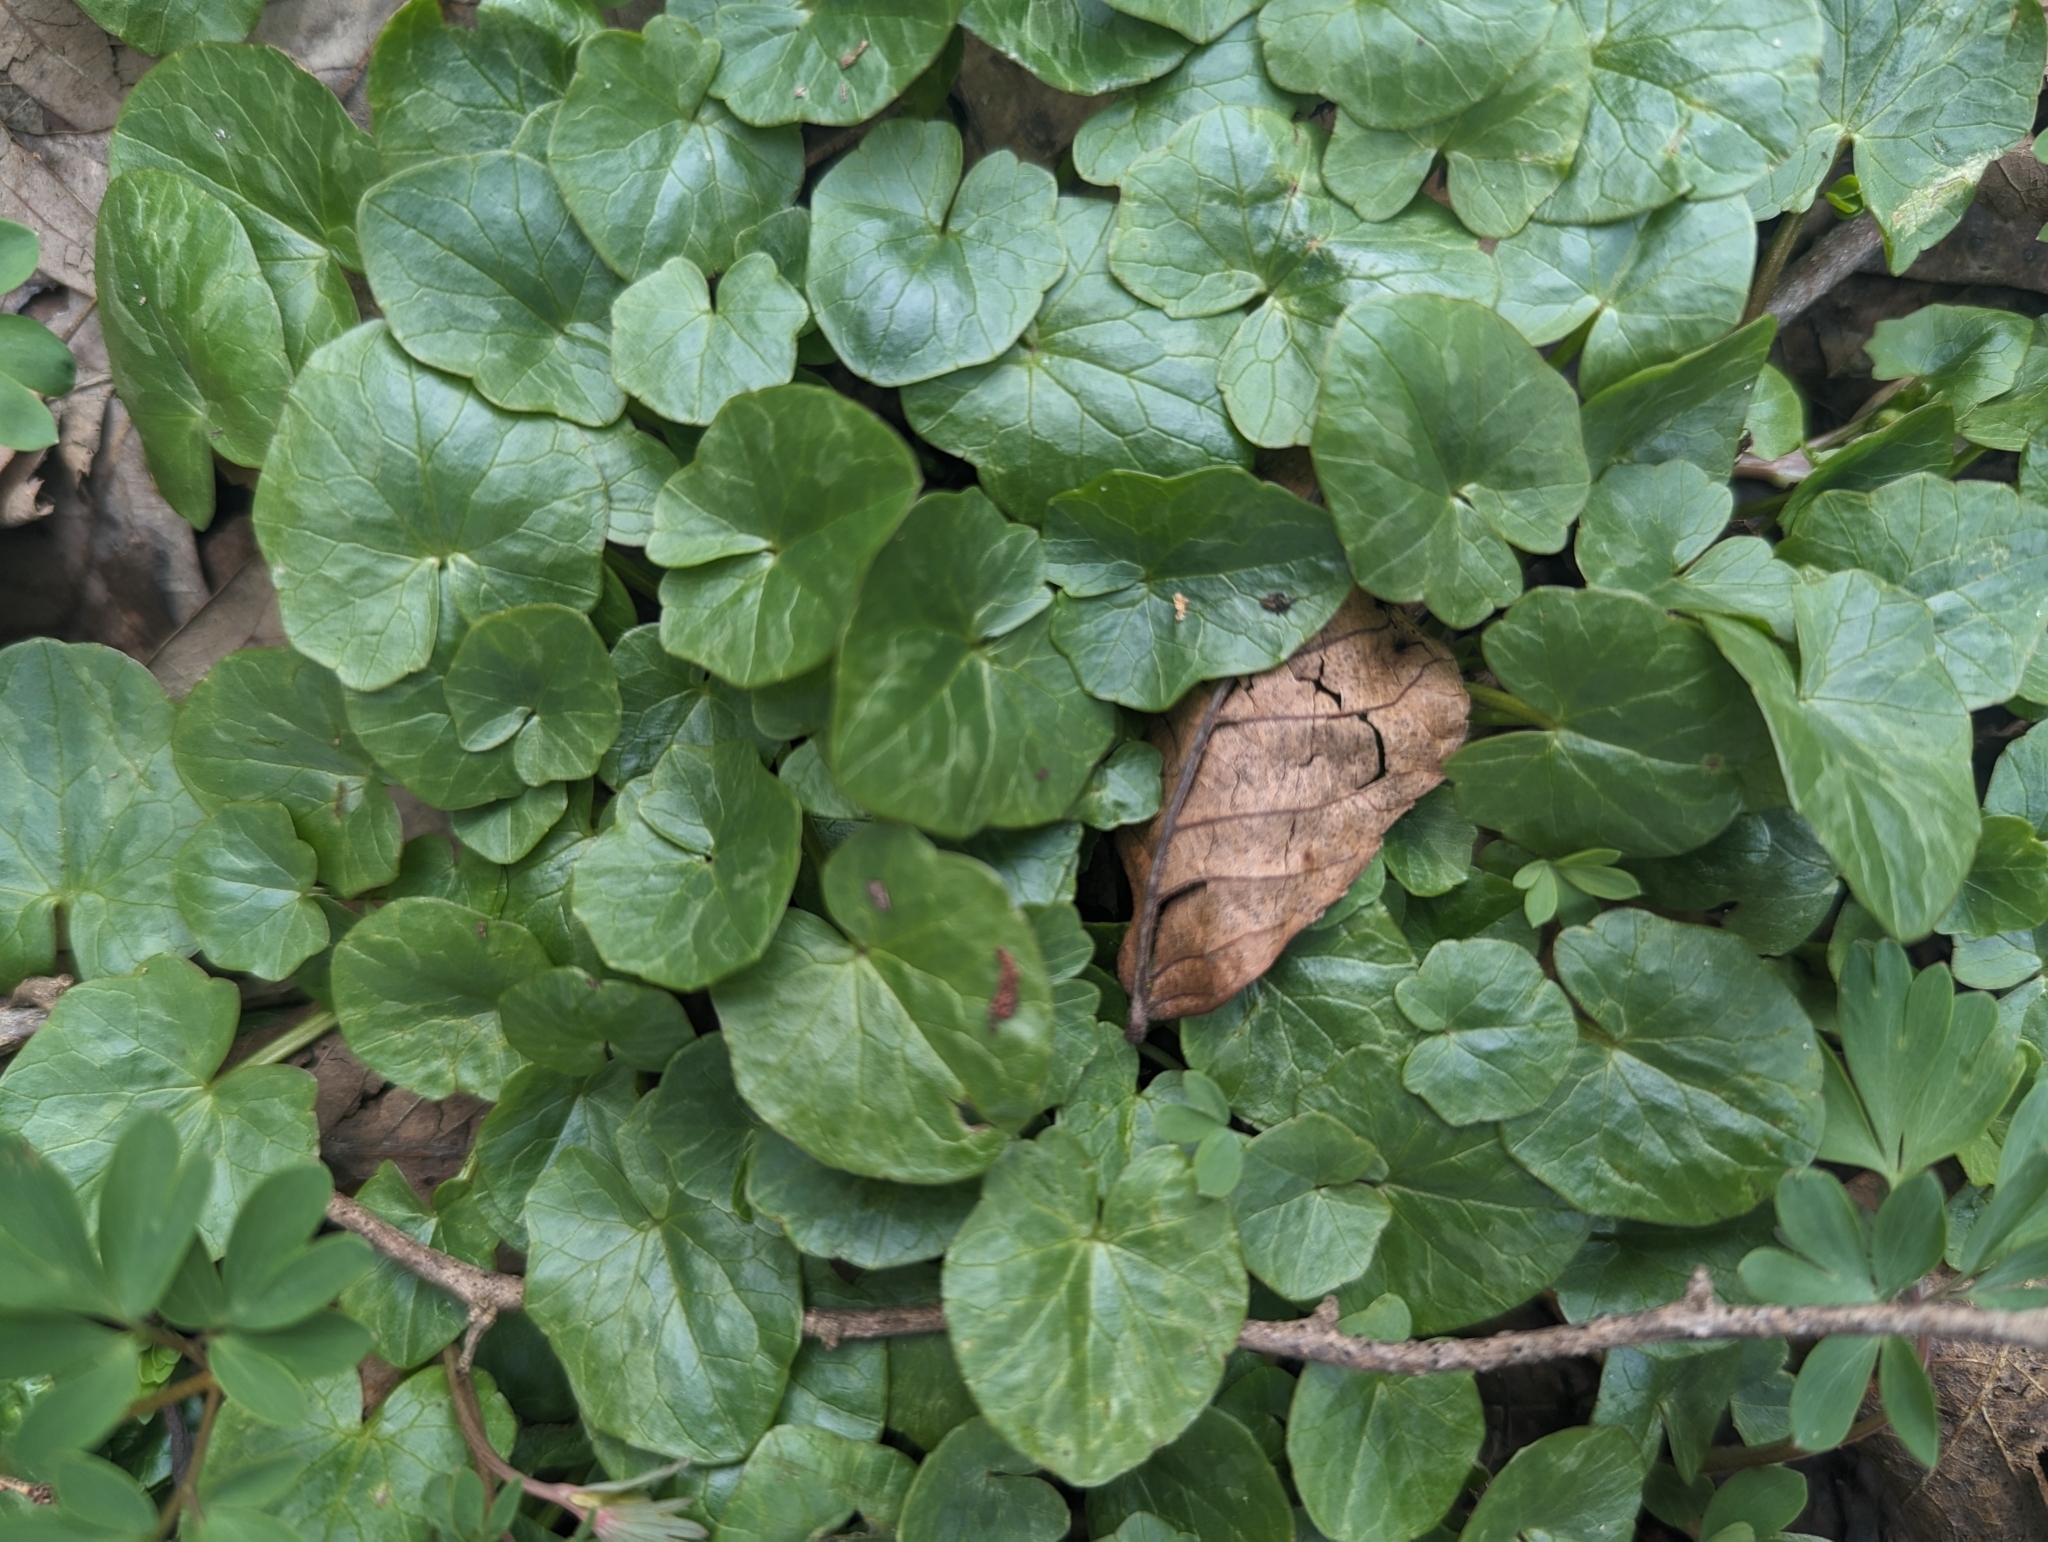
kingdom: Plantae
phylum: Tracheophyta
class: Magnoliopsida
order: Ranunculales
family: Ranunculaceae
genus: Ficaria
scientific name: Ficaria verna
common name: Lesser celandine
